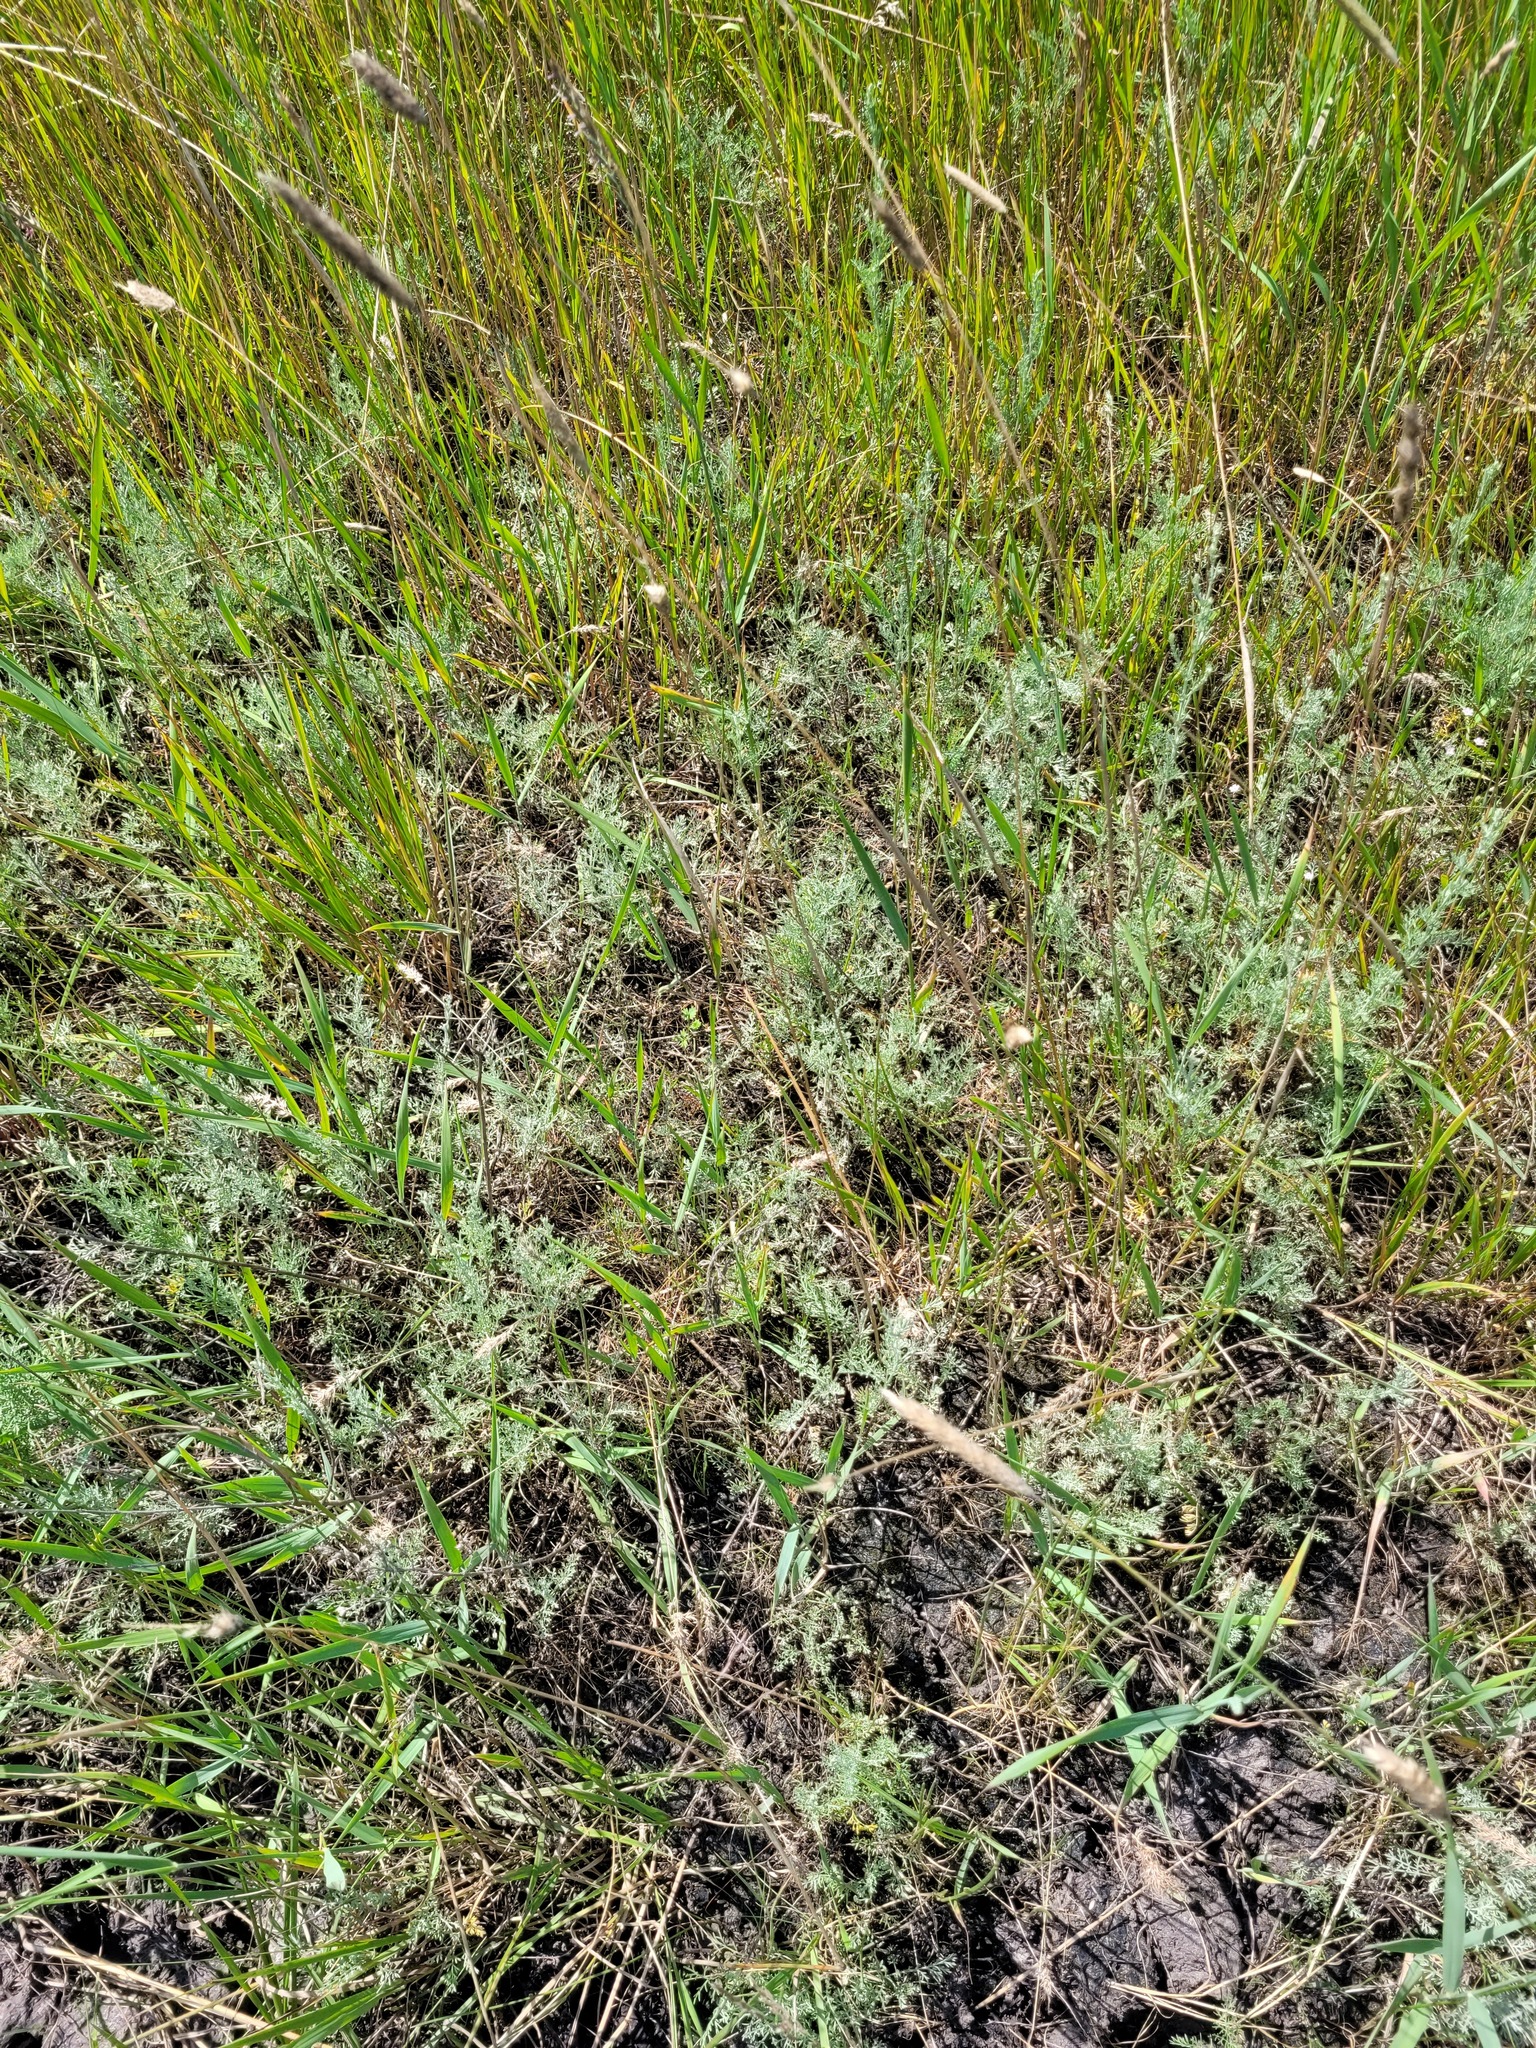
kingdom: Plantae
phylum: Tracheophyta
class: Magnoliopsida
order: Asterales
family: Asteraceae
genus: Artemisia
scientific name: Artemisia lercheana
